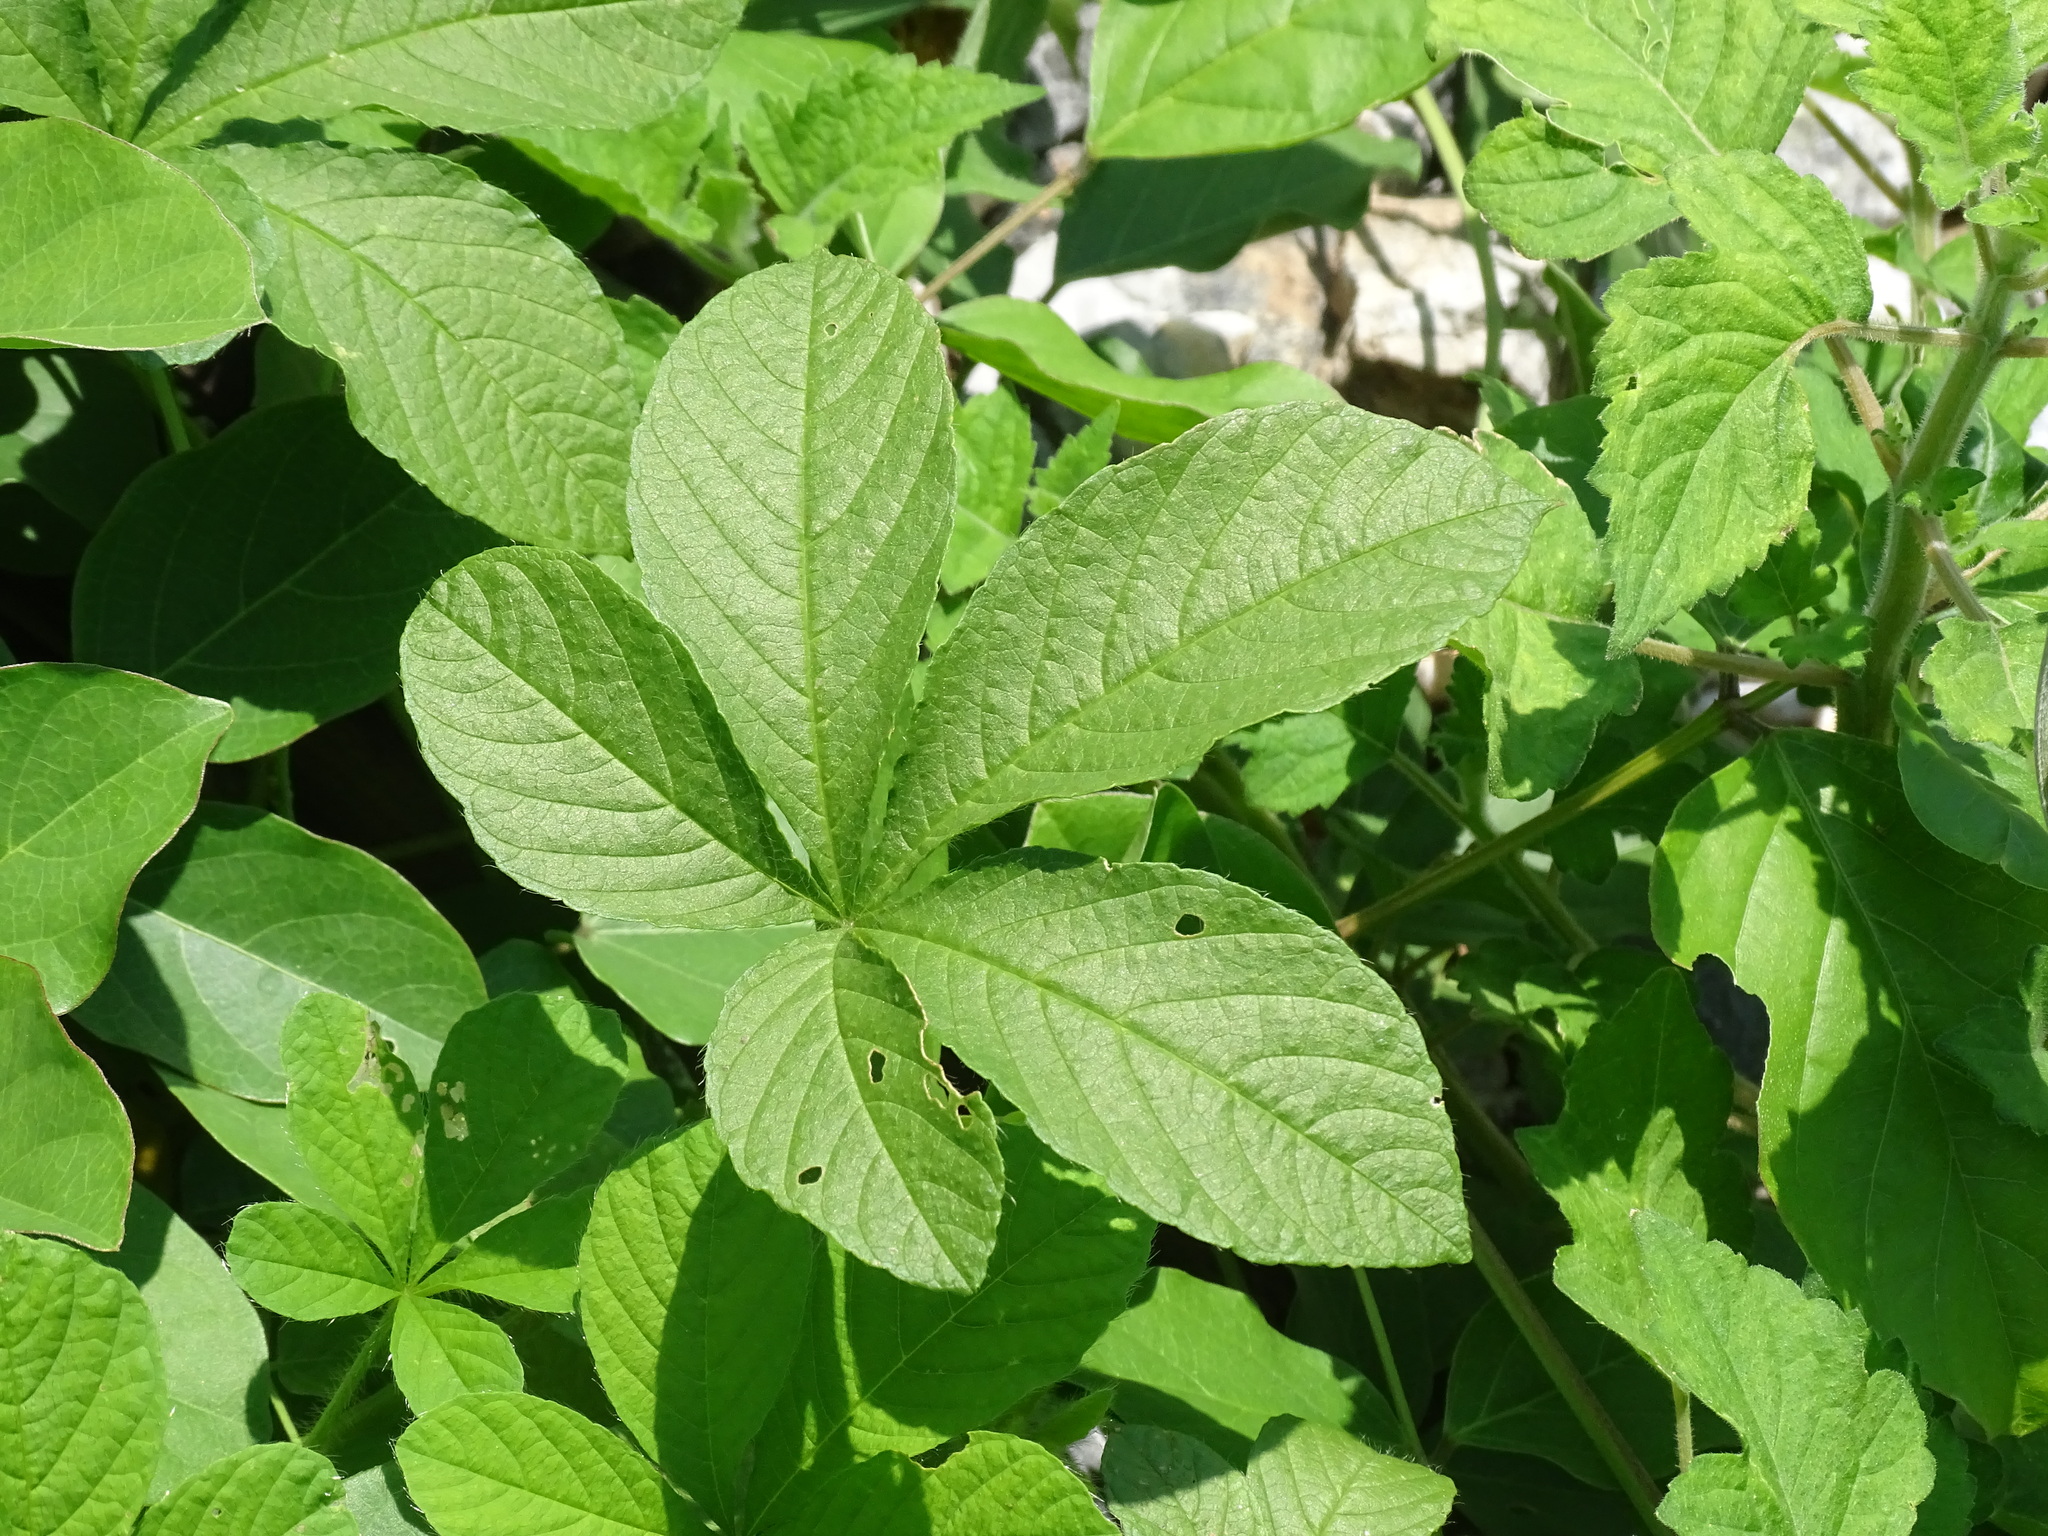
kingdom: Plantae
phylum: Tracheophyta
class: Magnoliopsida
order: Solanales
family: Convolvulaceae
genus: Distimake
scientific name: Distimake aegyptius
